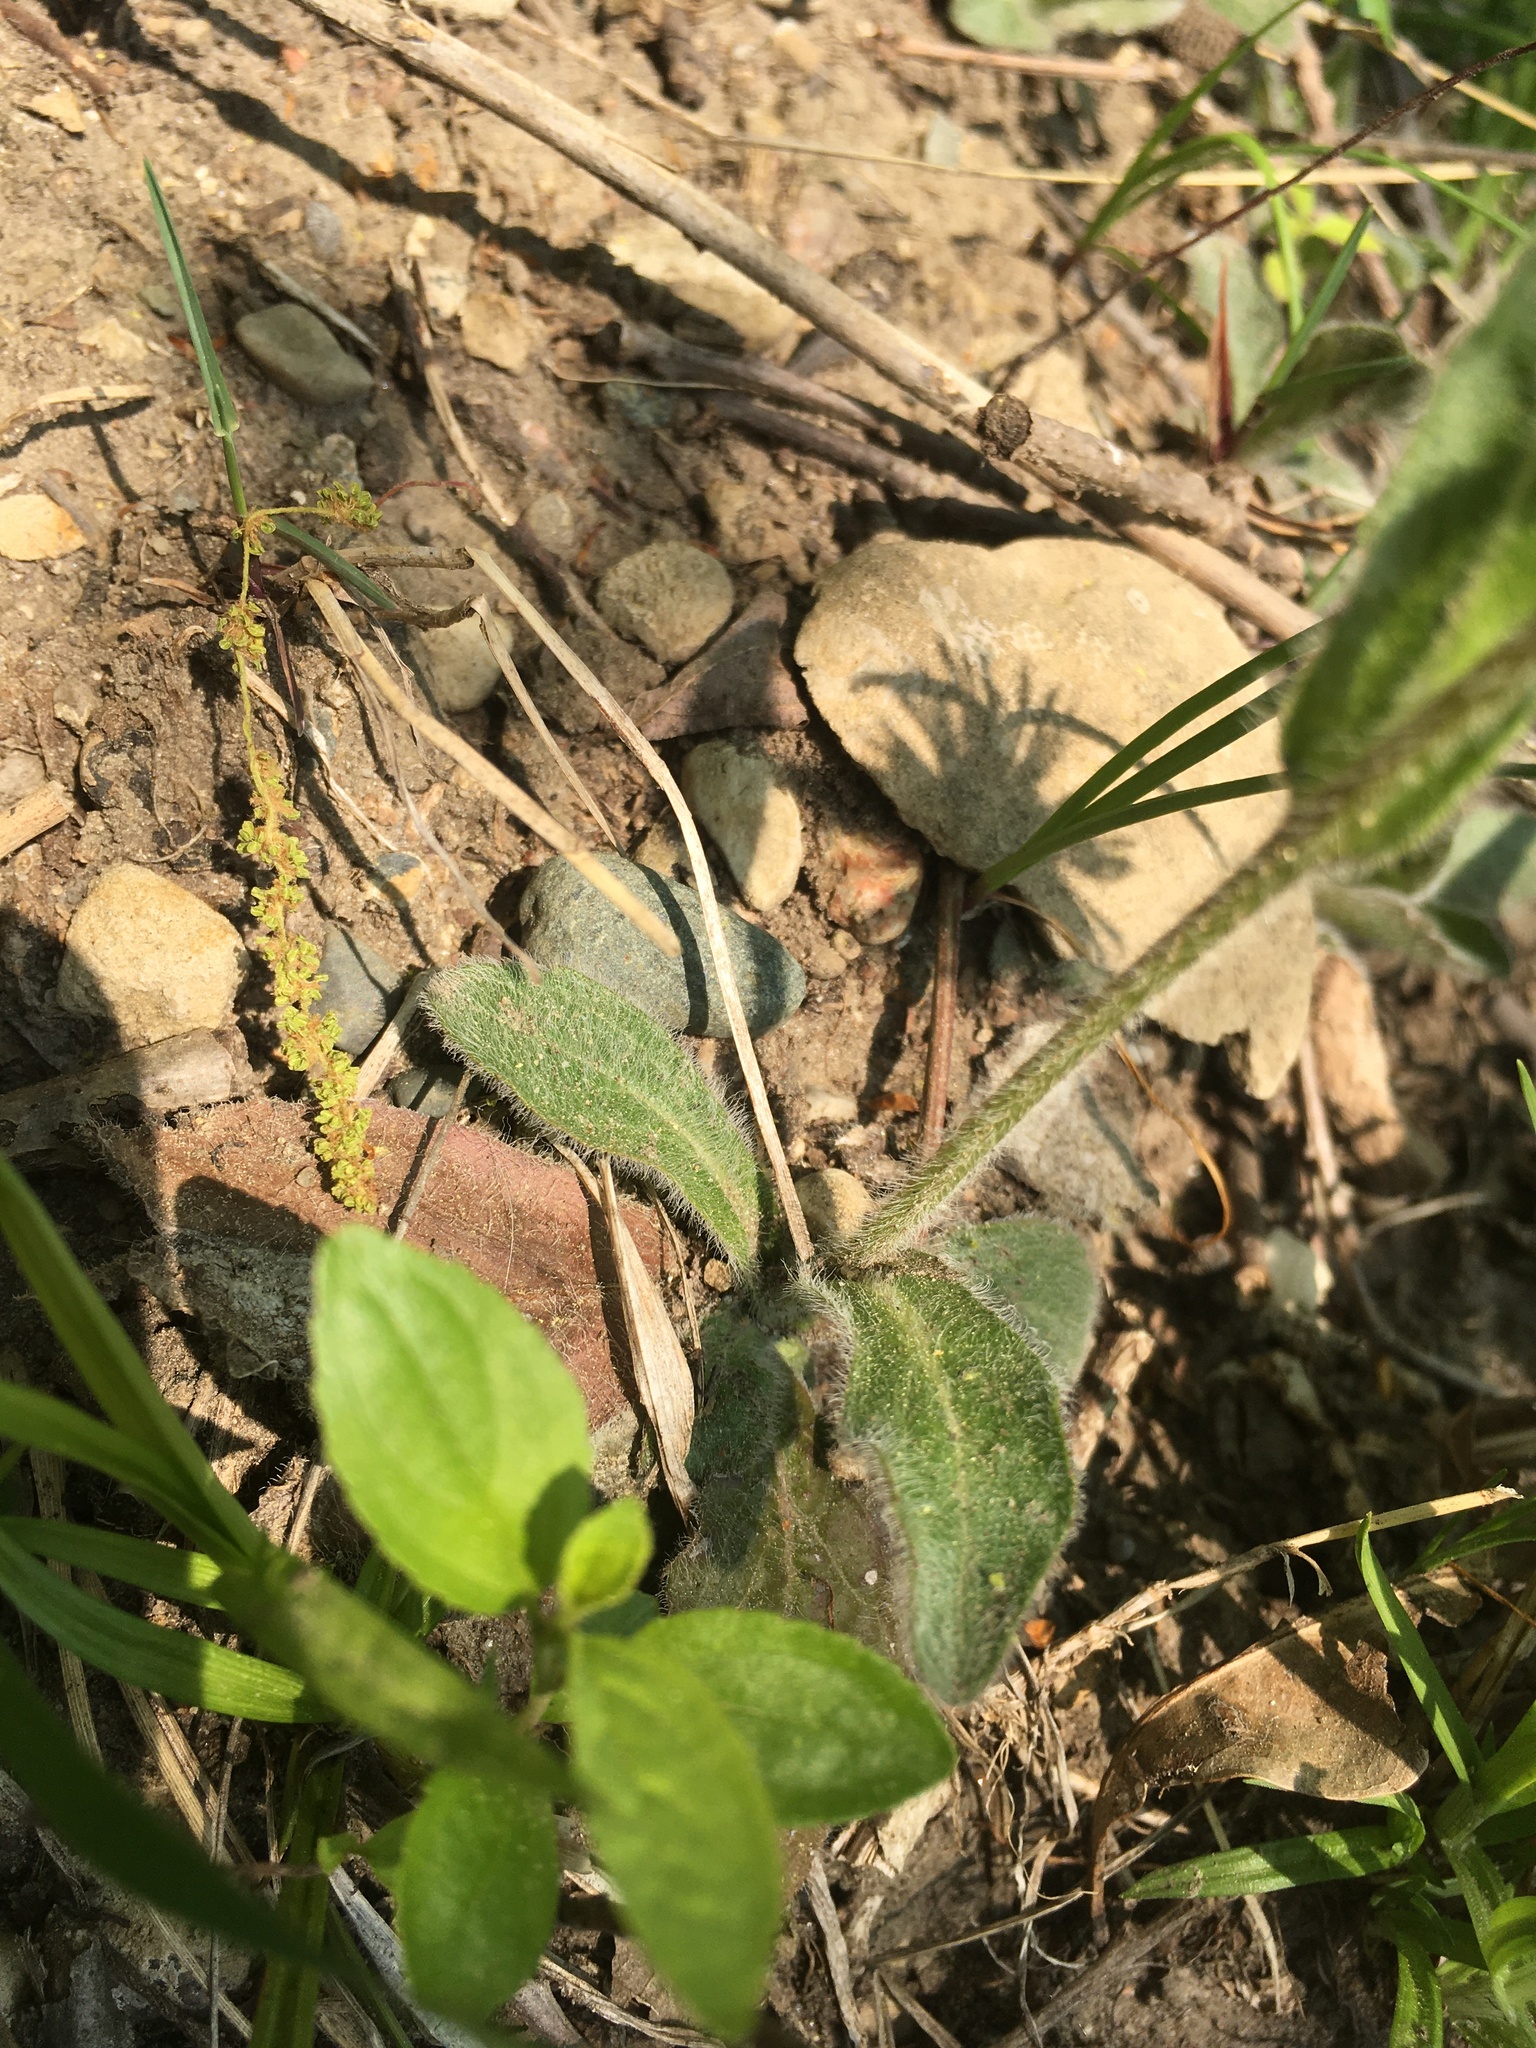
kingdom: Plantae
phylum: Tracheophyta
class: Magnoliopsida
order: Asterales
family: Asteraceae
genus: Erigeron
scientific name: Erigeron pulchellus
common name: Hairy fleabane
